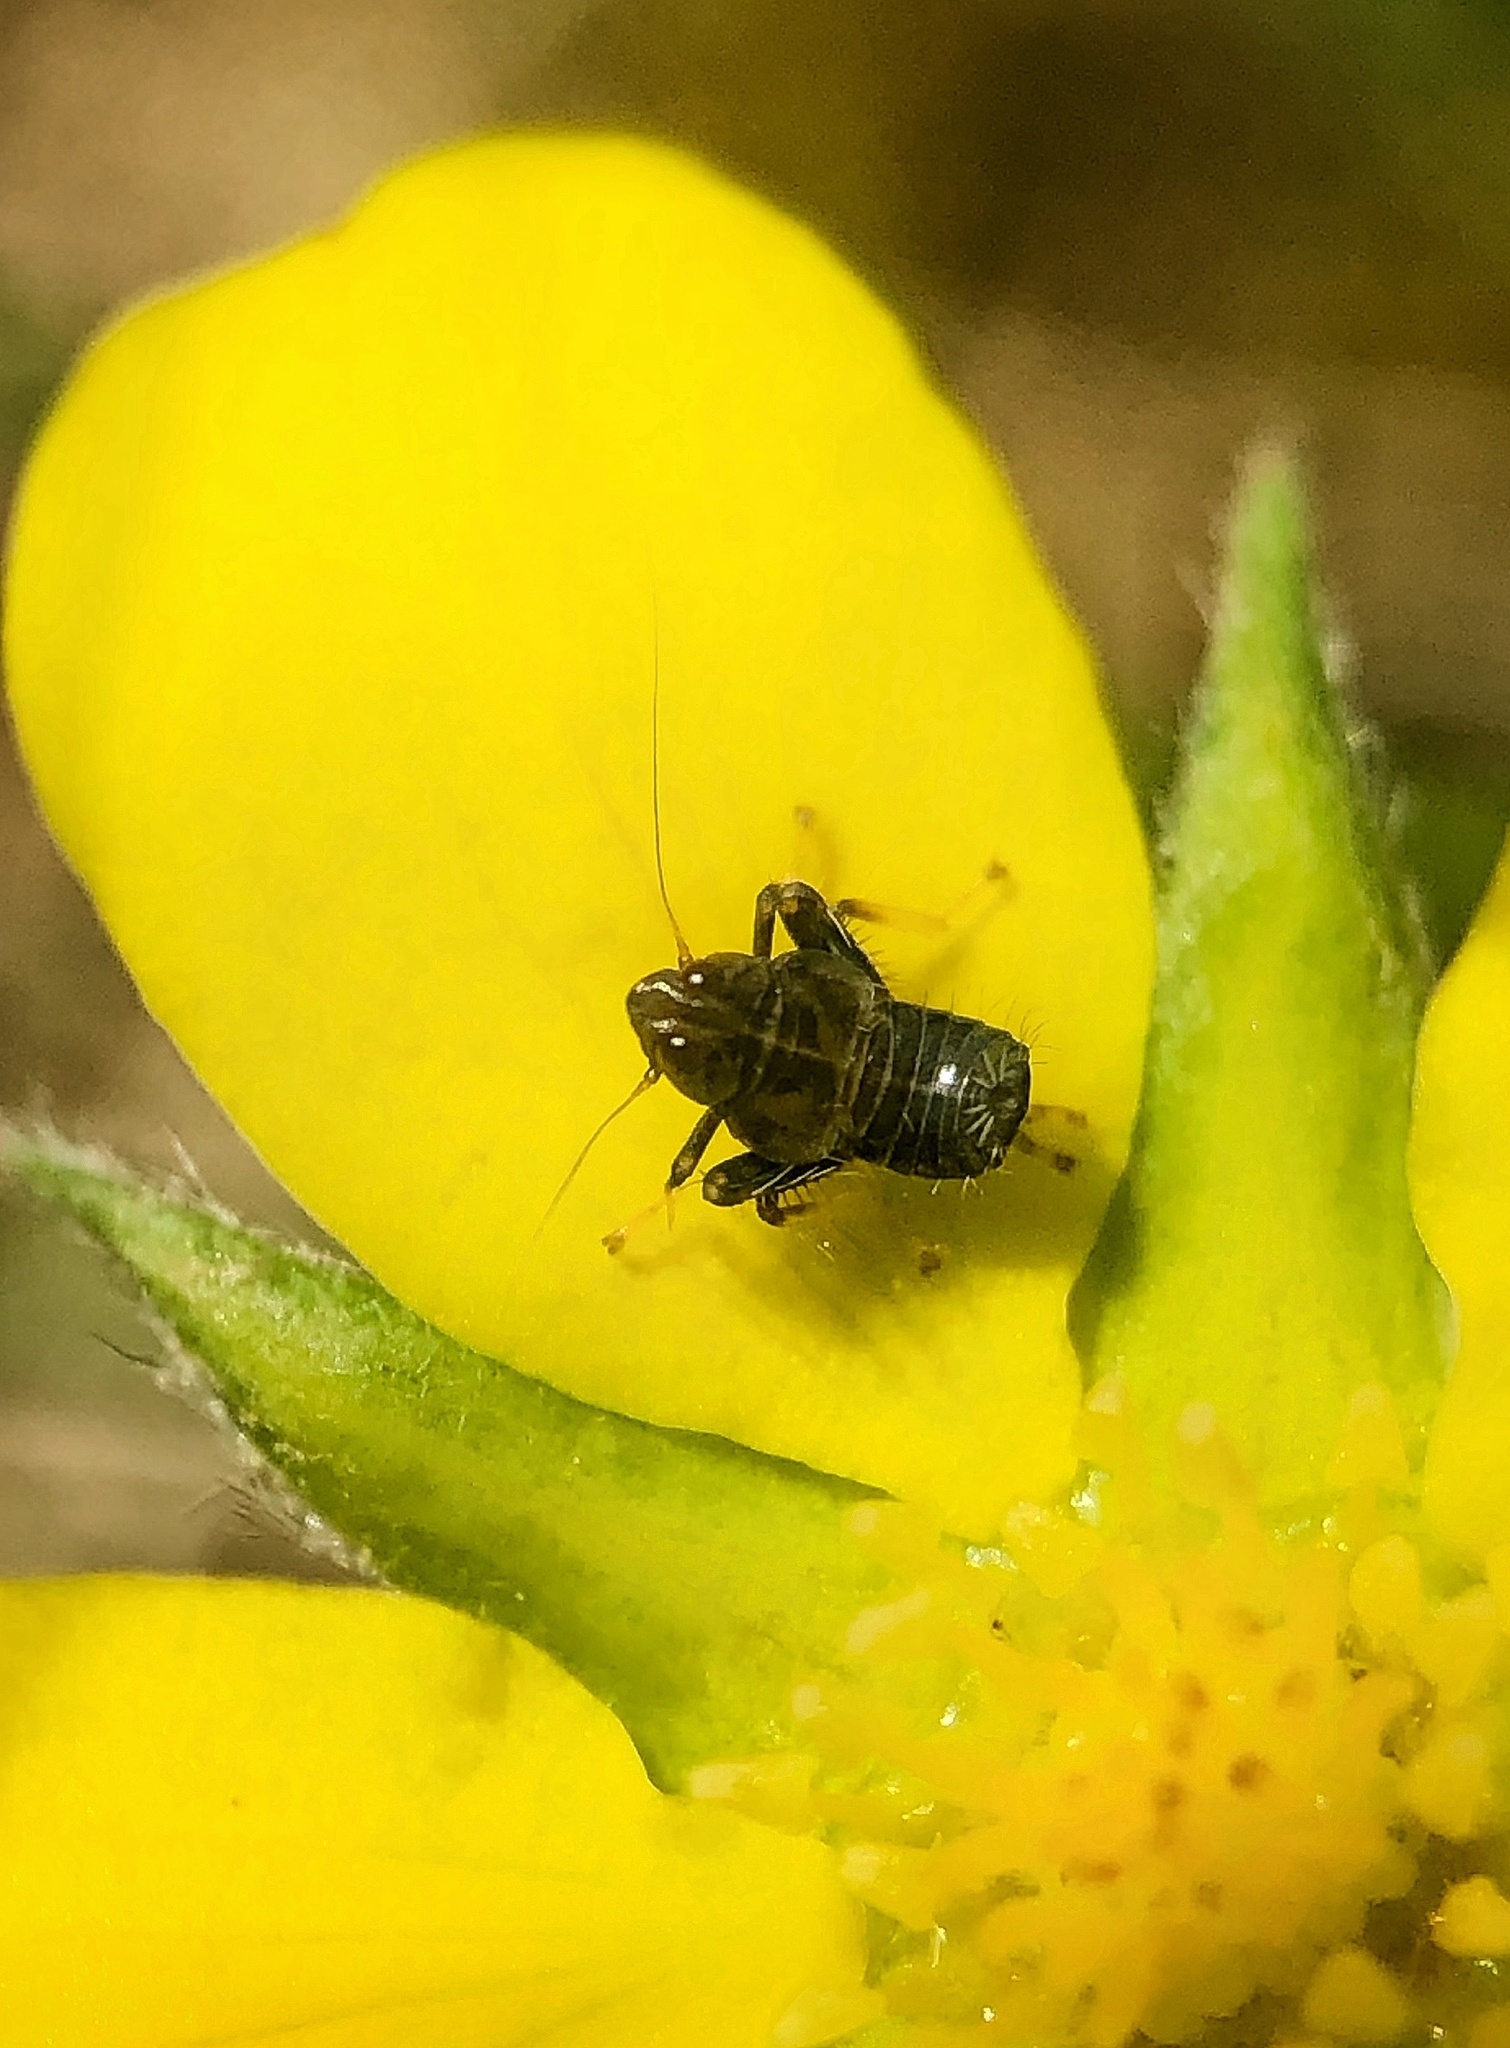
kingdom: Animalia
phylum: Arthropoda
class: Insecta
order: Hemiptera
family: Cicadellidae
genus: Jikradia
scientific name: Jikradia olitoria
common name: Coppery leafhopper
